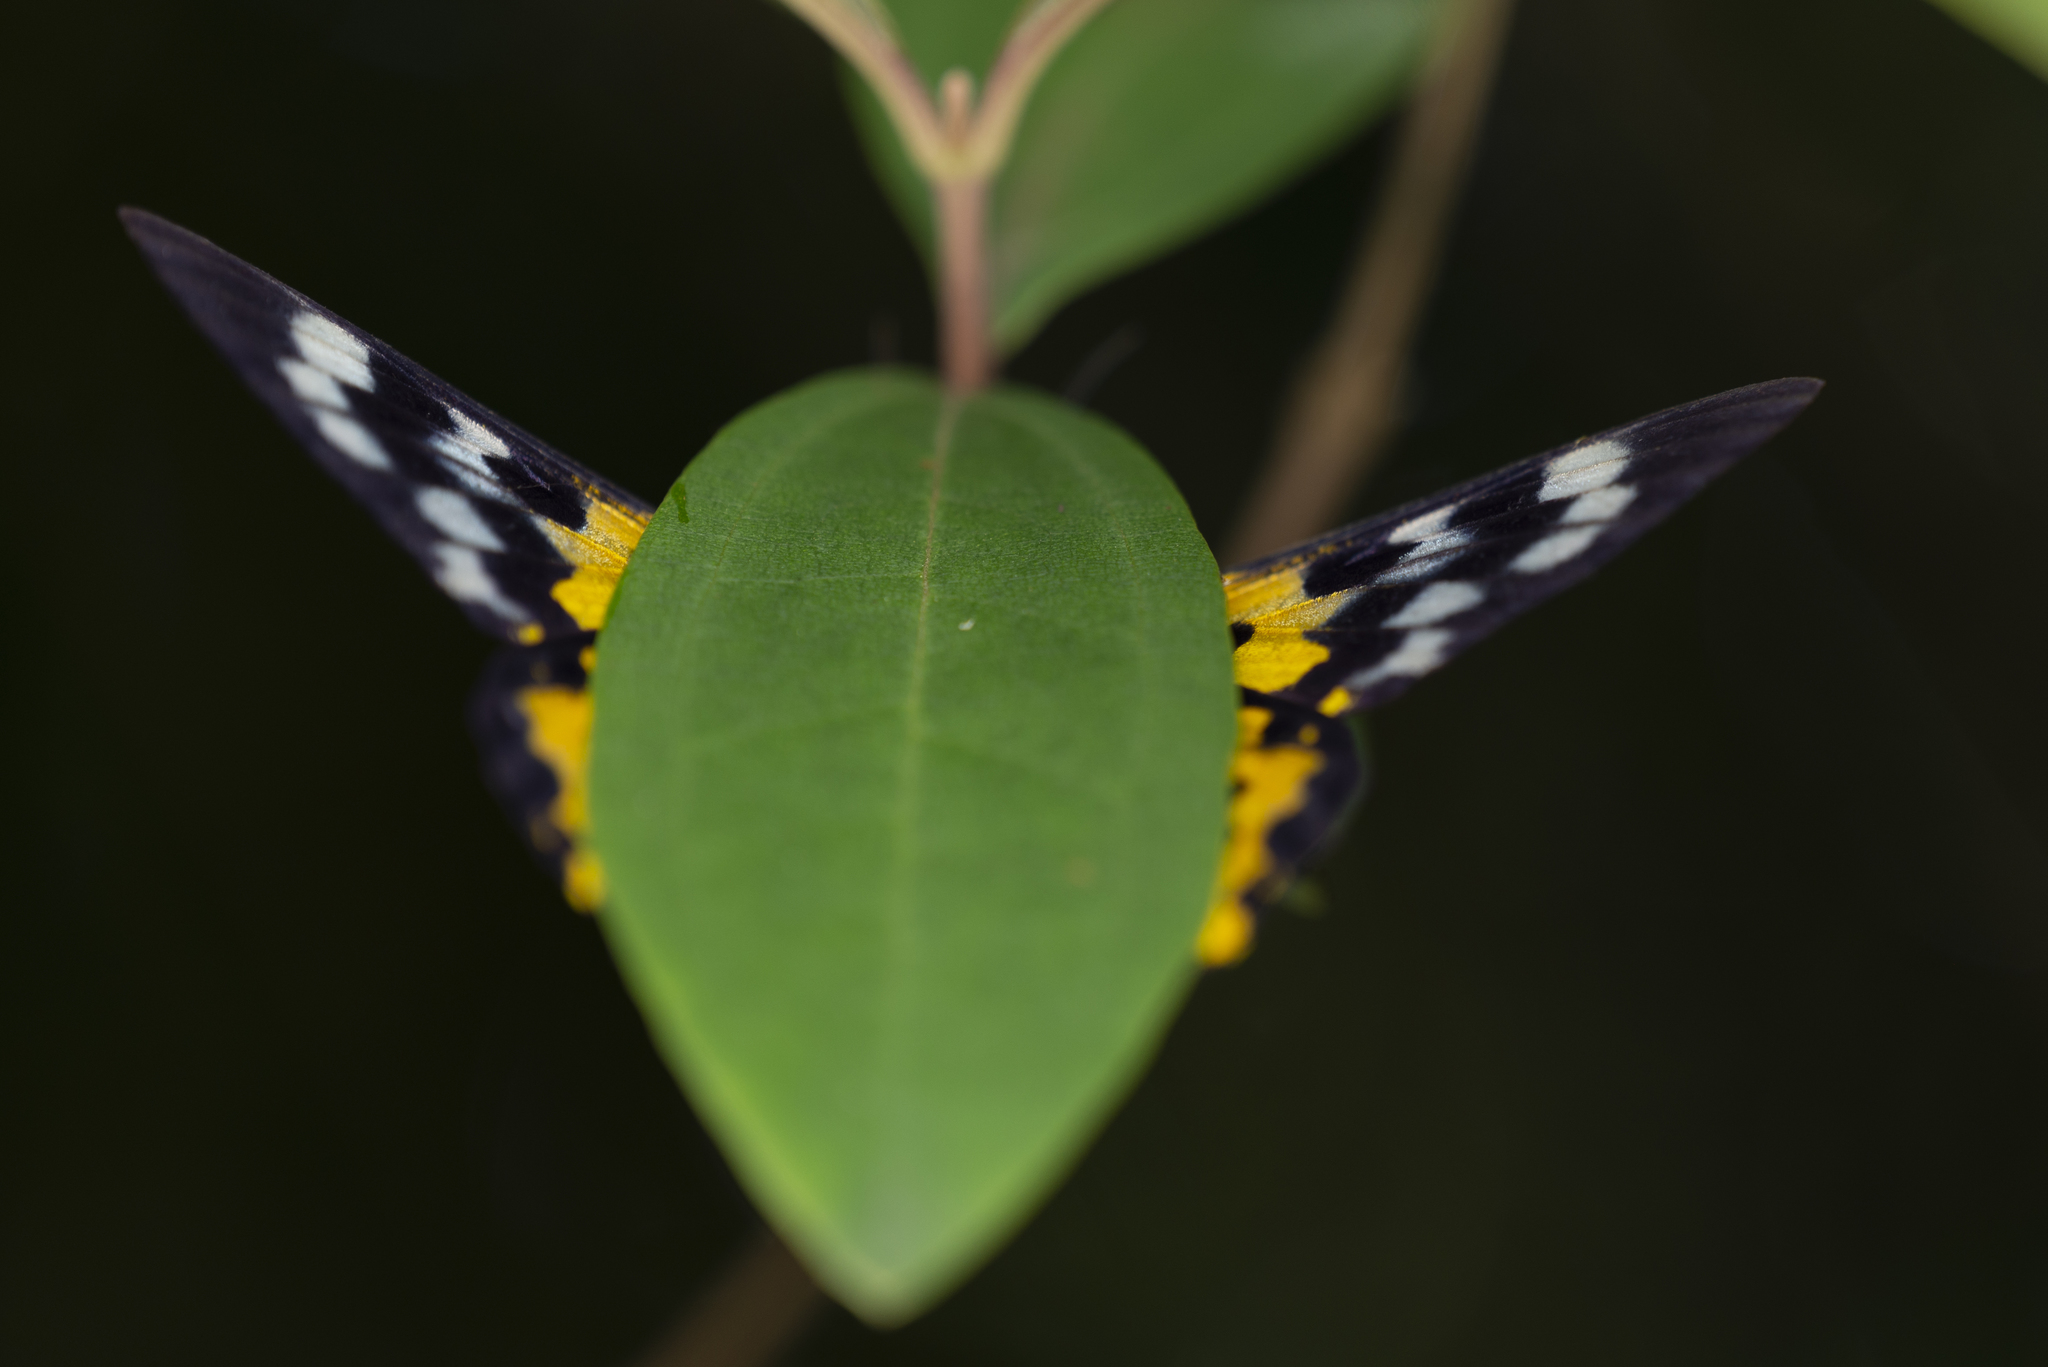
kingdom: Animalia
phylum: Arthropoda
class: Insecta
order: Lepidoptera
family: Geometridae
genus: Dysphania
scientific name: Dysphania militaris
